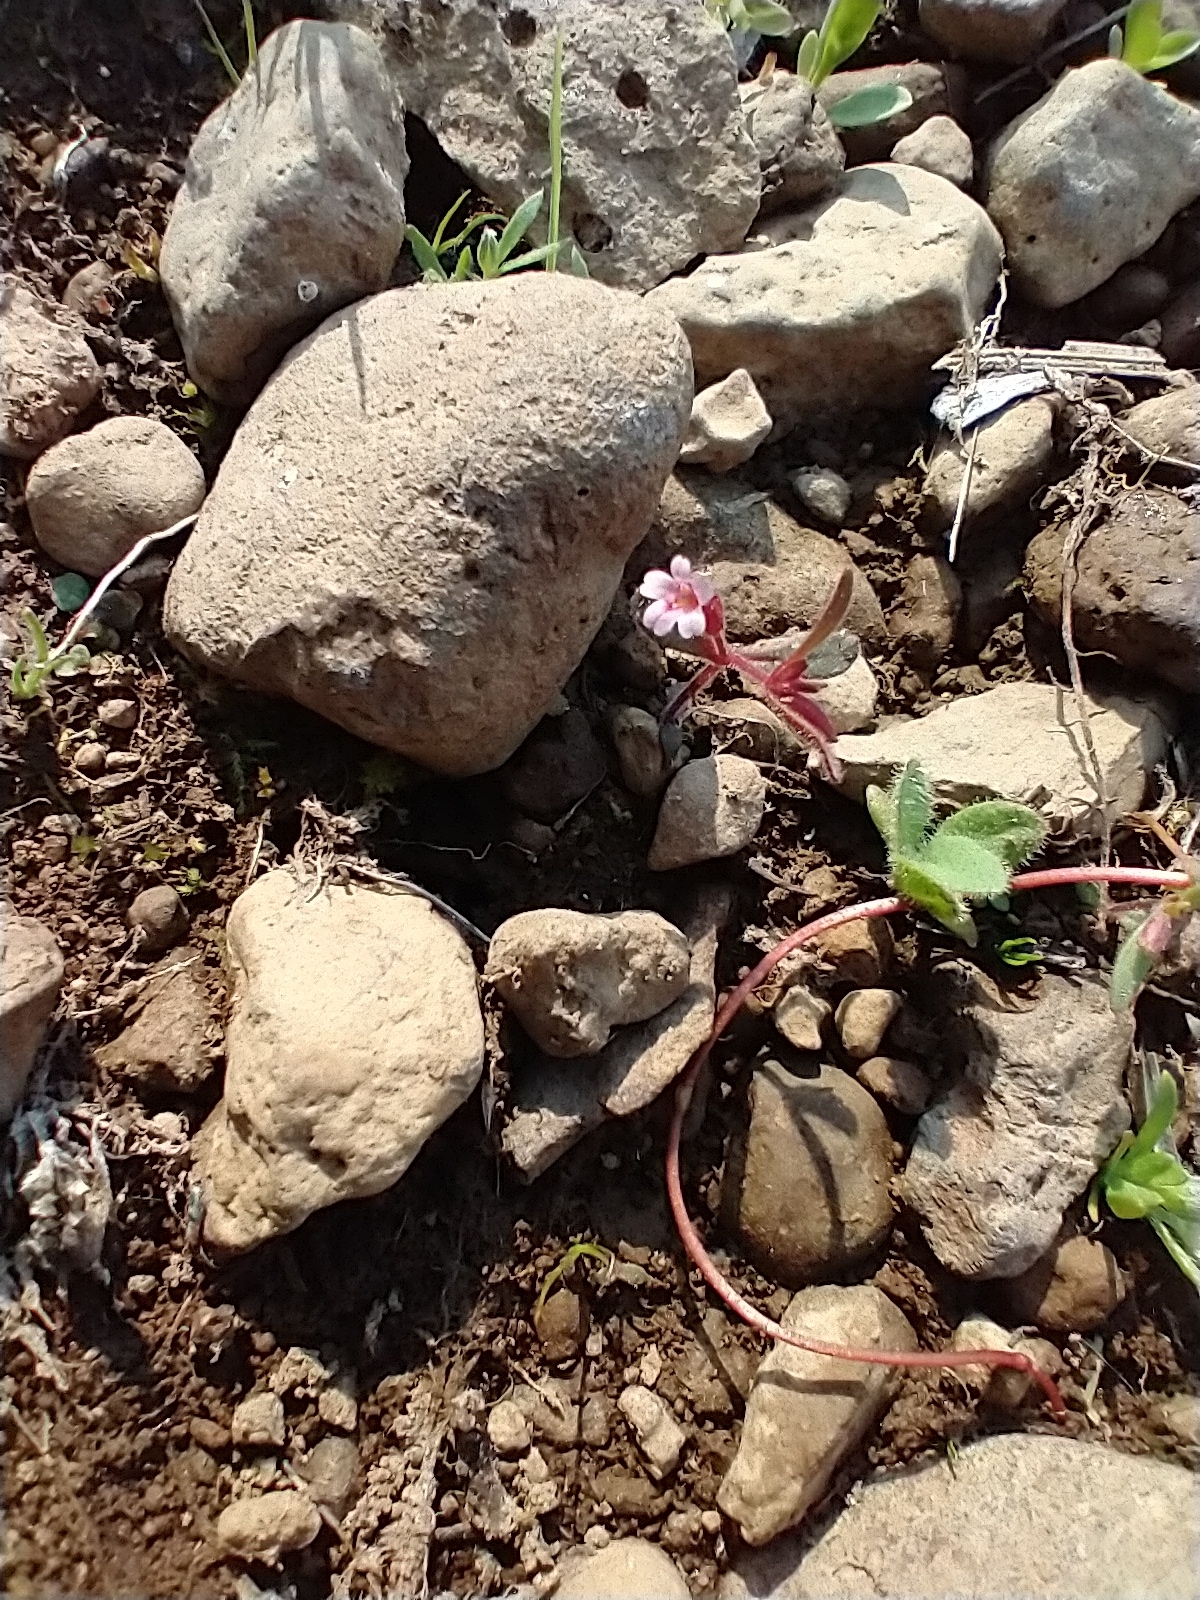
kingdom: Plantae
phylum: Tracheophyta
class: Magnoliopsida
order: Lamiales
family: Phrymaceae
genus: Erythranthe
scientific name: Erythranthe breweri
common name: Brewer's monkeyflower
